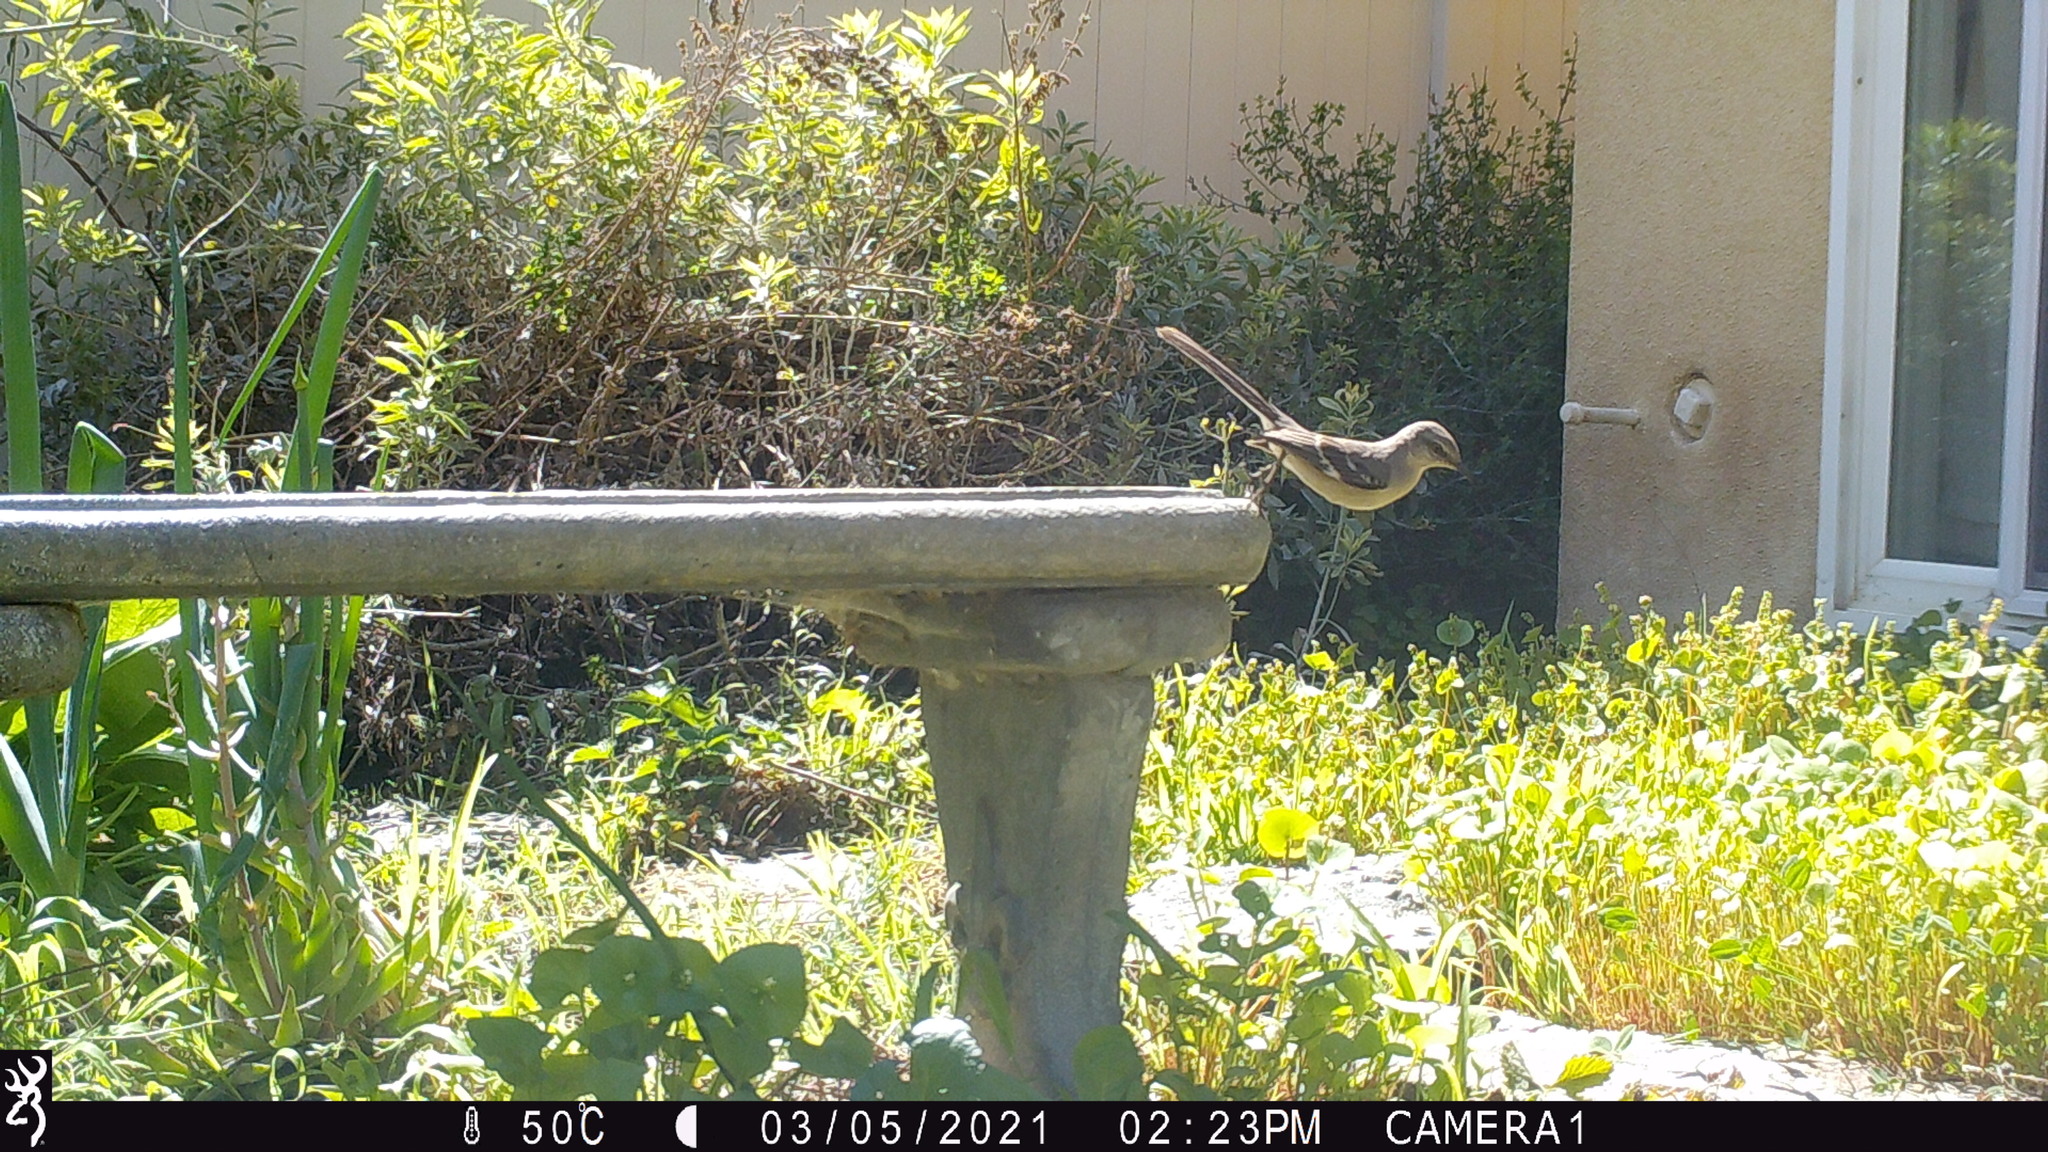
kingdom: Animalia
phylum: Chordata
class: Aves
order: Passeriformes
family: Mimidae
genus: Mimus
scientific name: Mimus polyglottos
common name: Northern mockingbird
